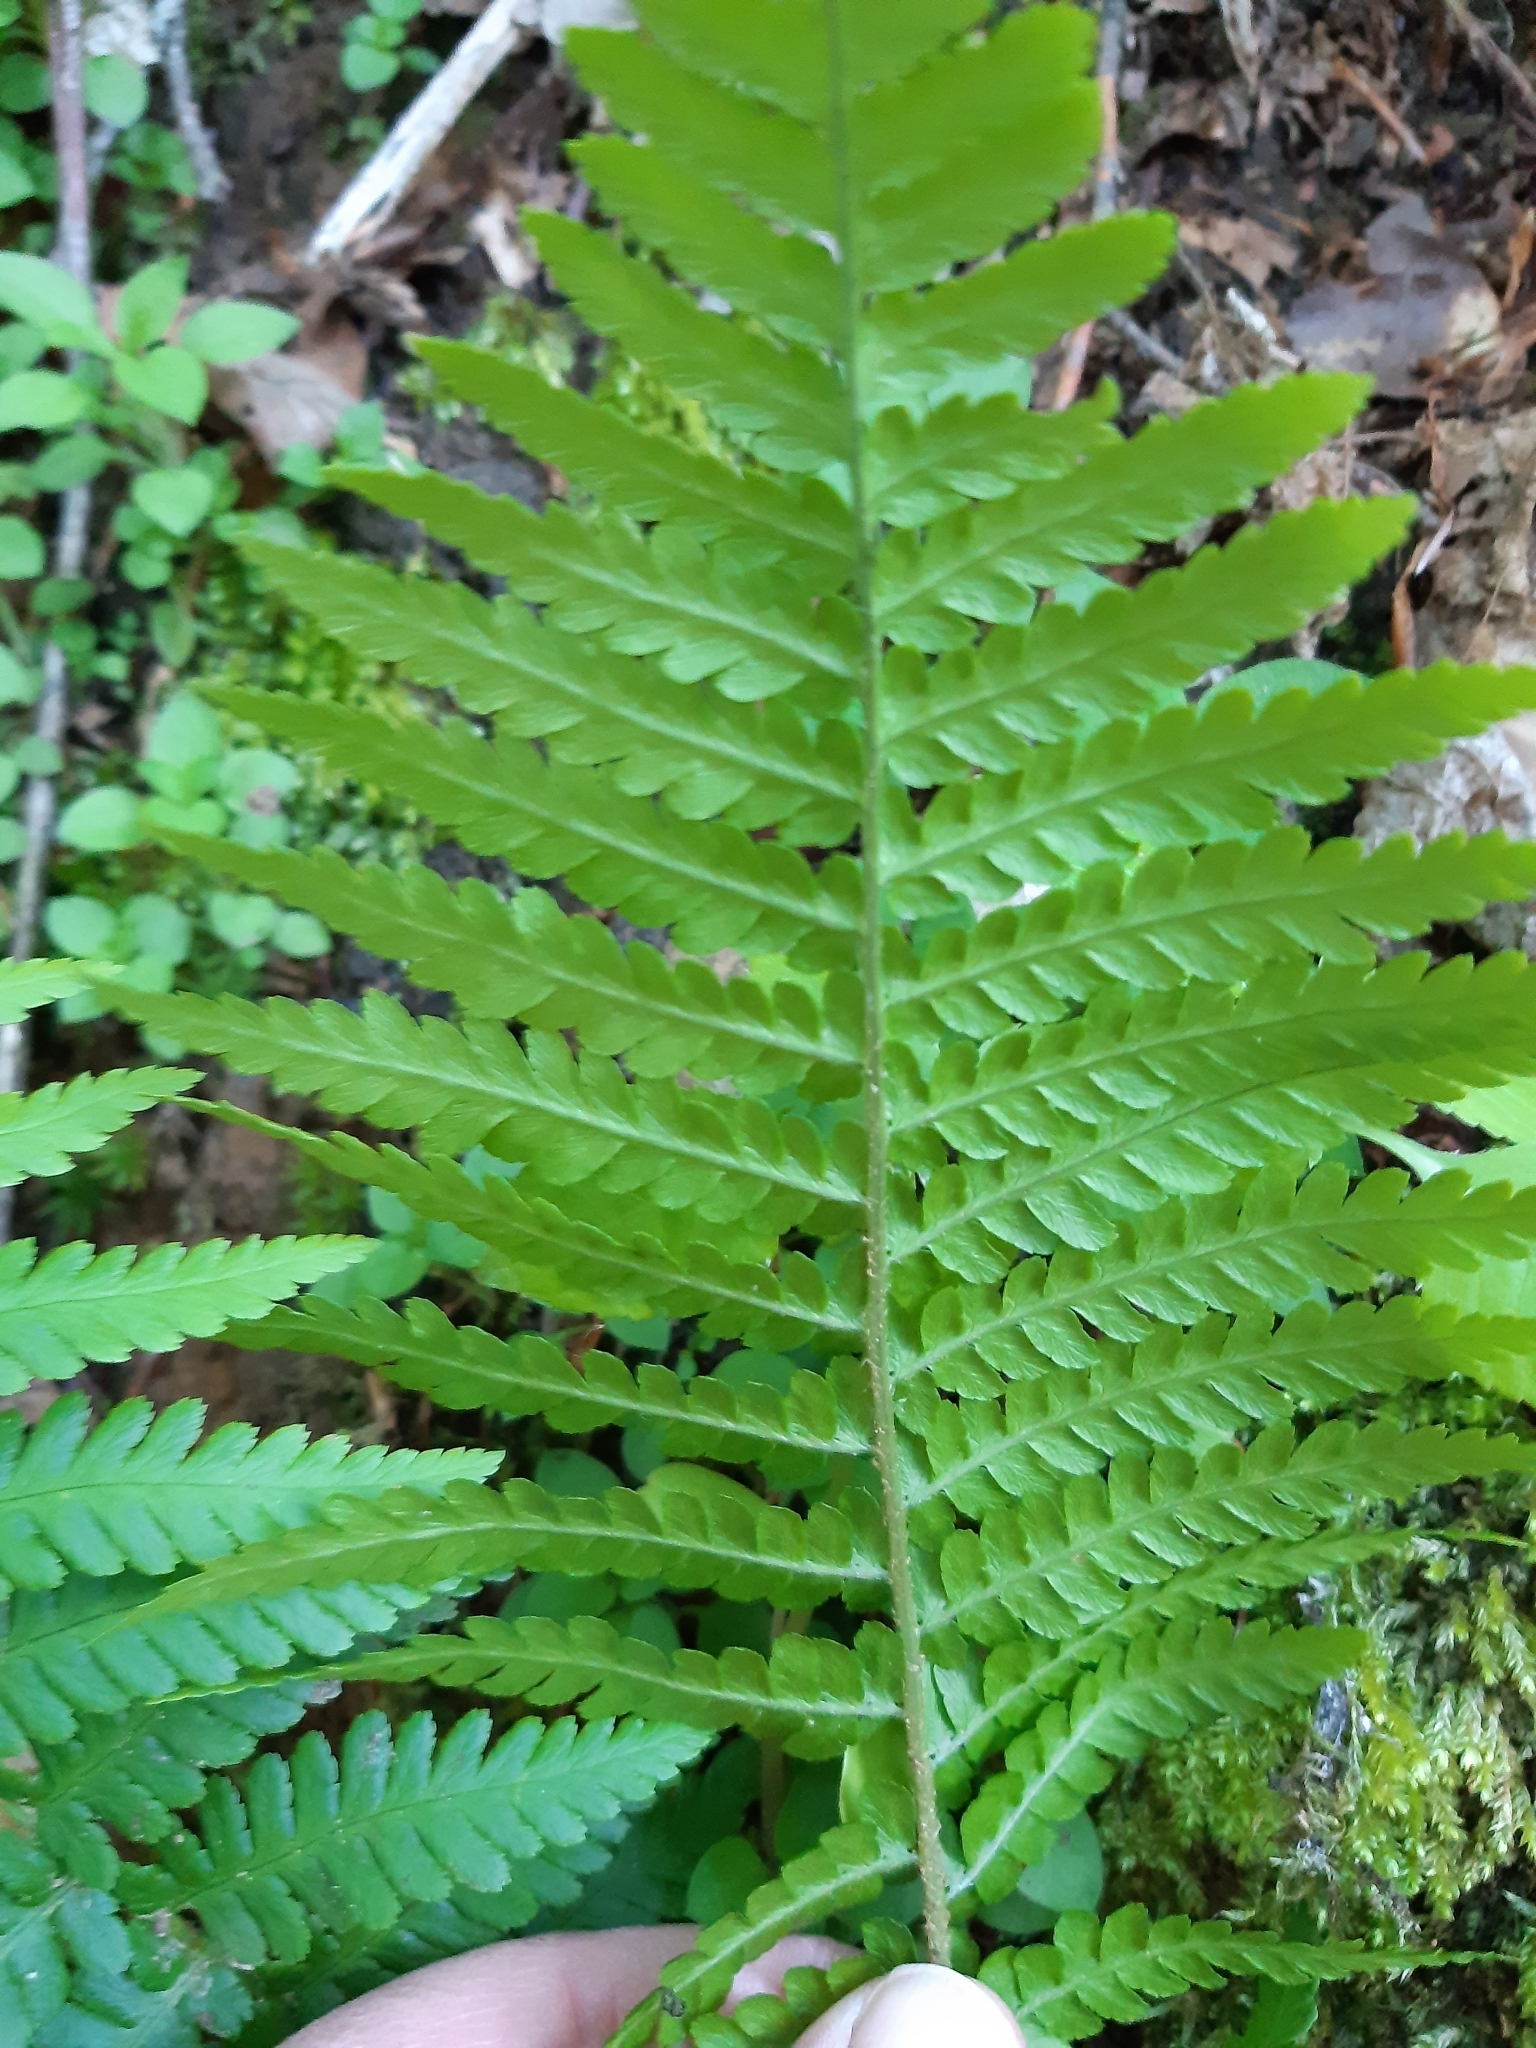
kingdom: Plantae
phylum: Tracheophyta
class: Polypodiopsida
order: Polypodiales
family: Dryopteridaceae
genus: Dryopteris
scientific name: Dryopteris filix-mas
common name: Male fern
